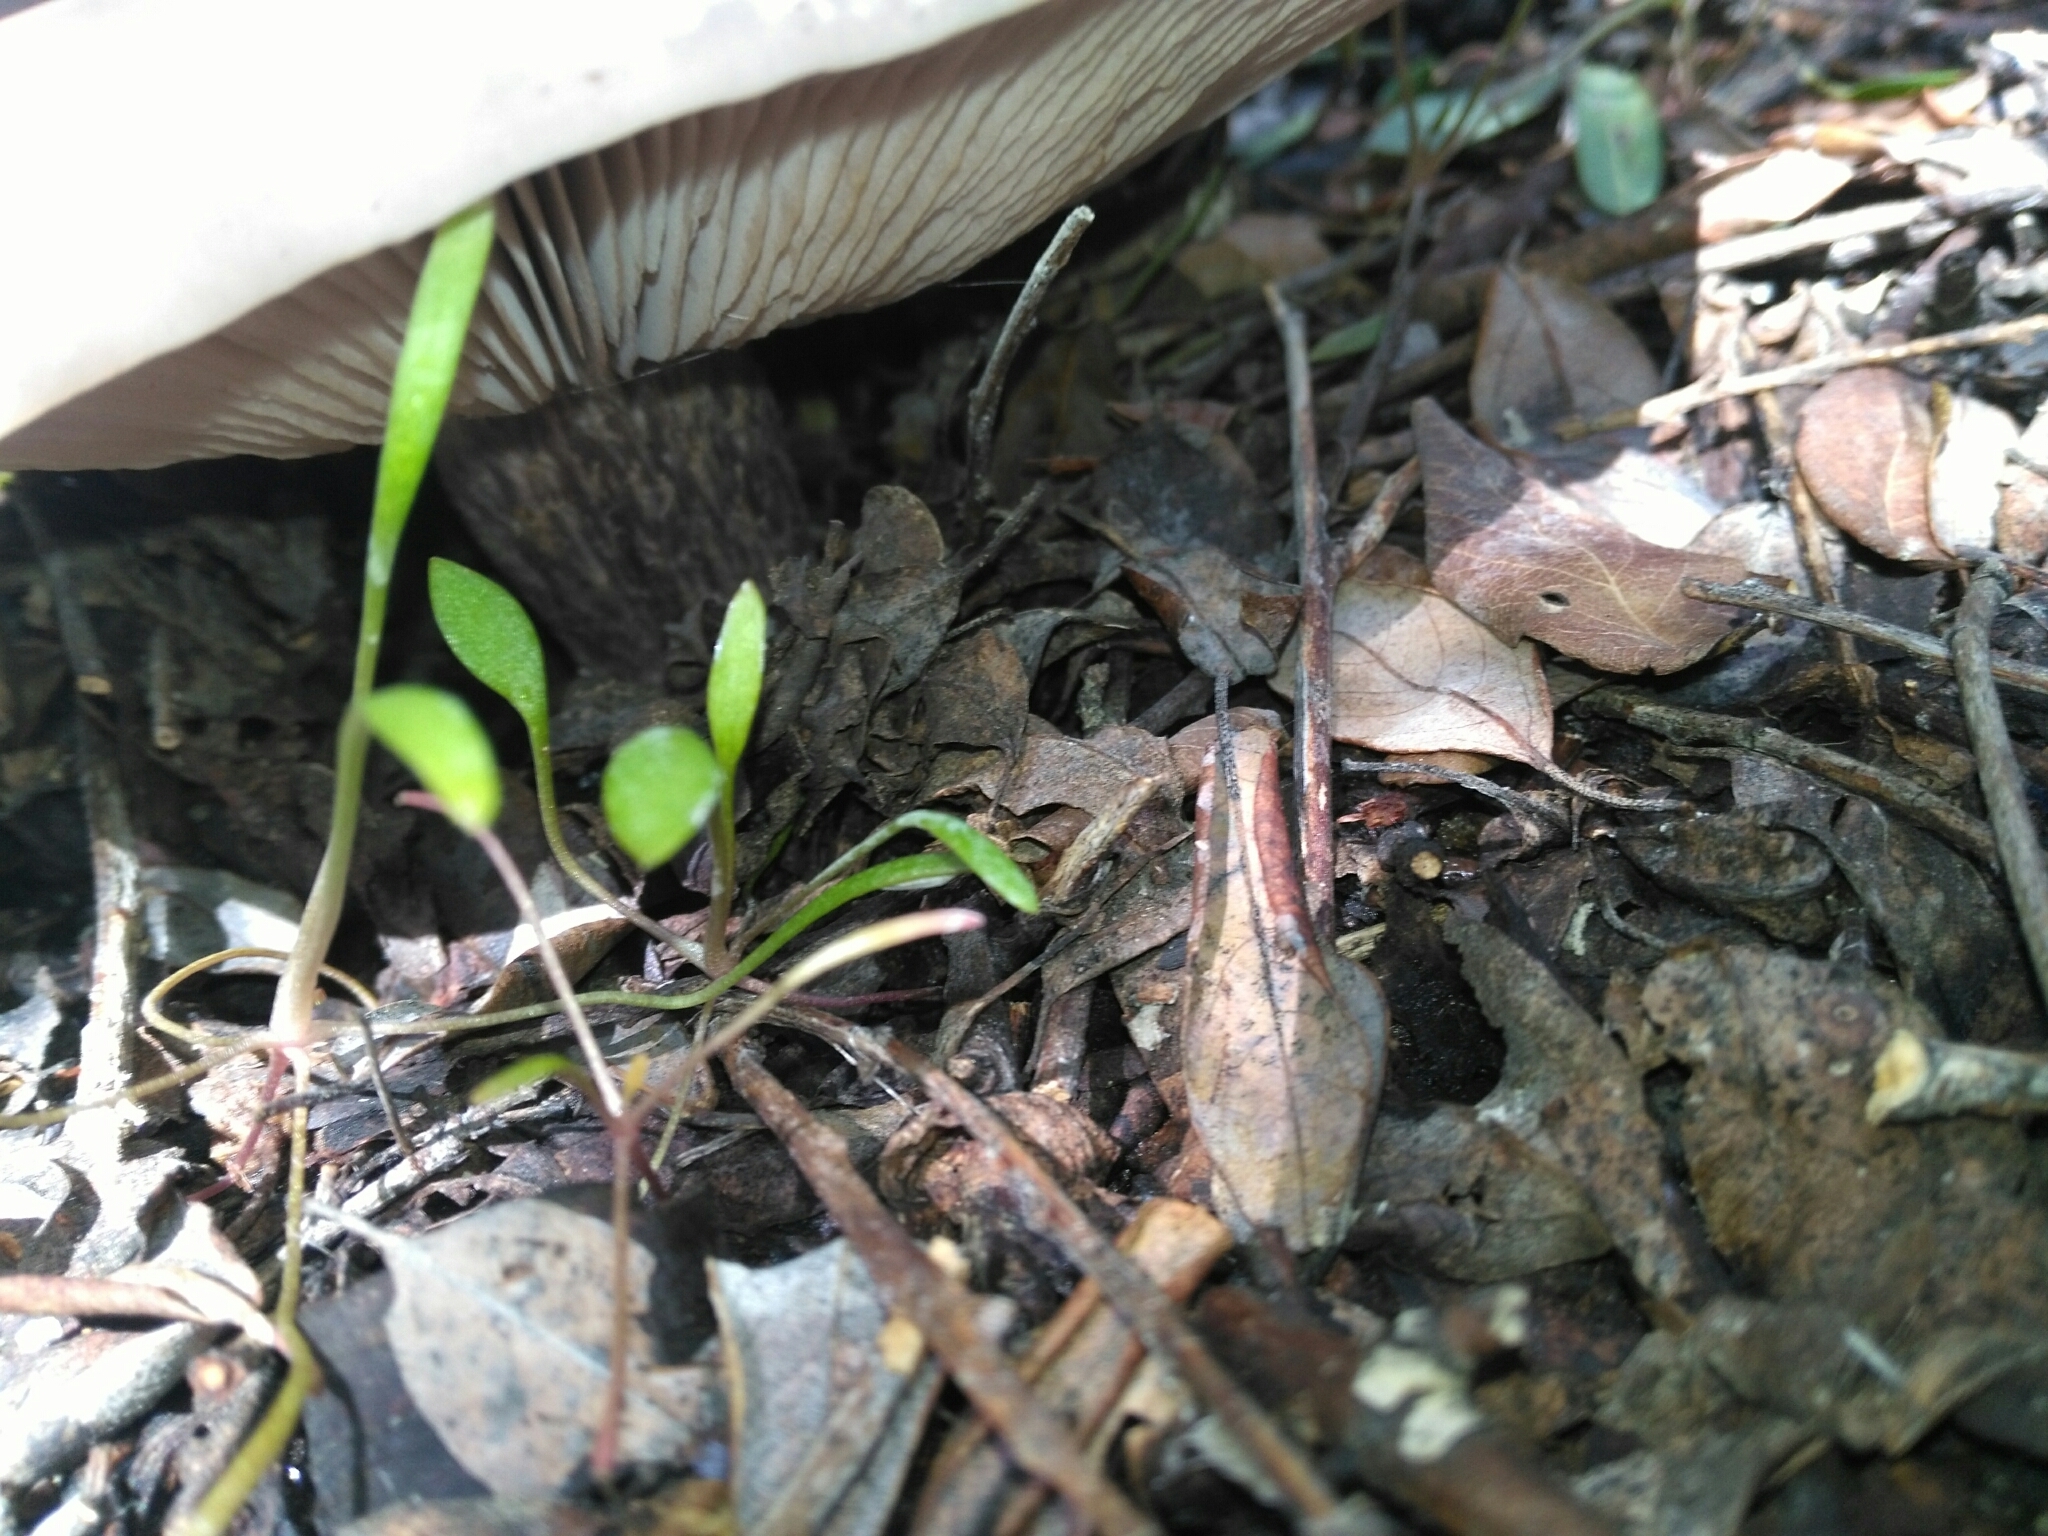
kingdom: Fungi
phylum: Basidiomycota
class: Agaricomycetes
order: Agaricales
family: Tricholomataceae
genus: Collybia
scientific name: Collybia
